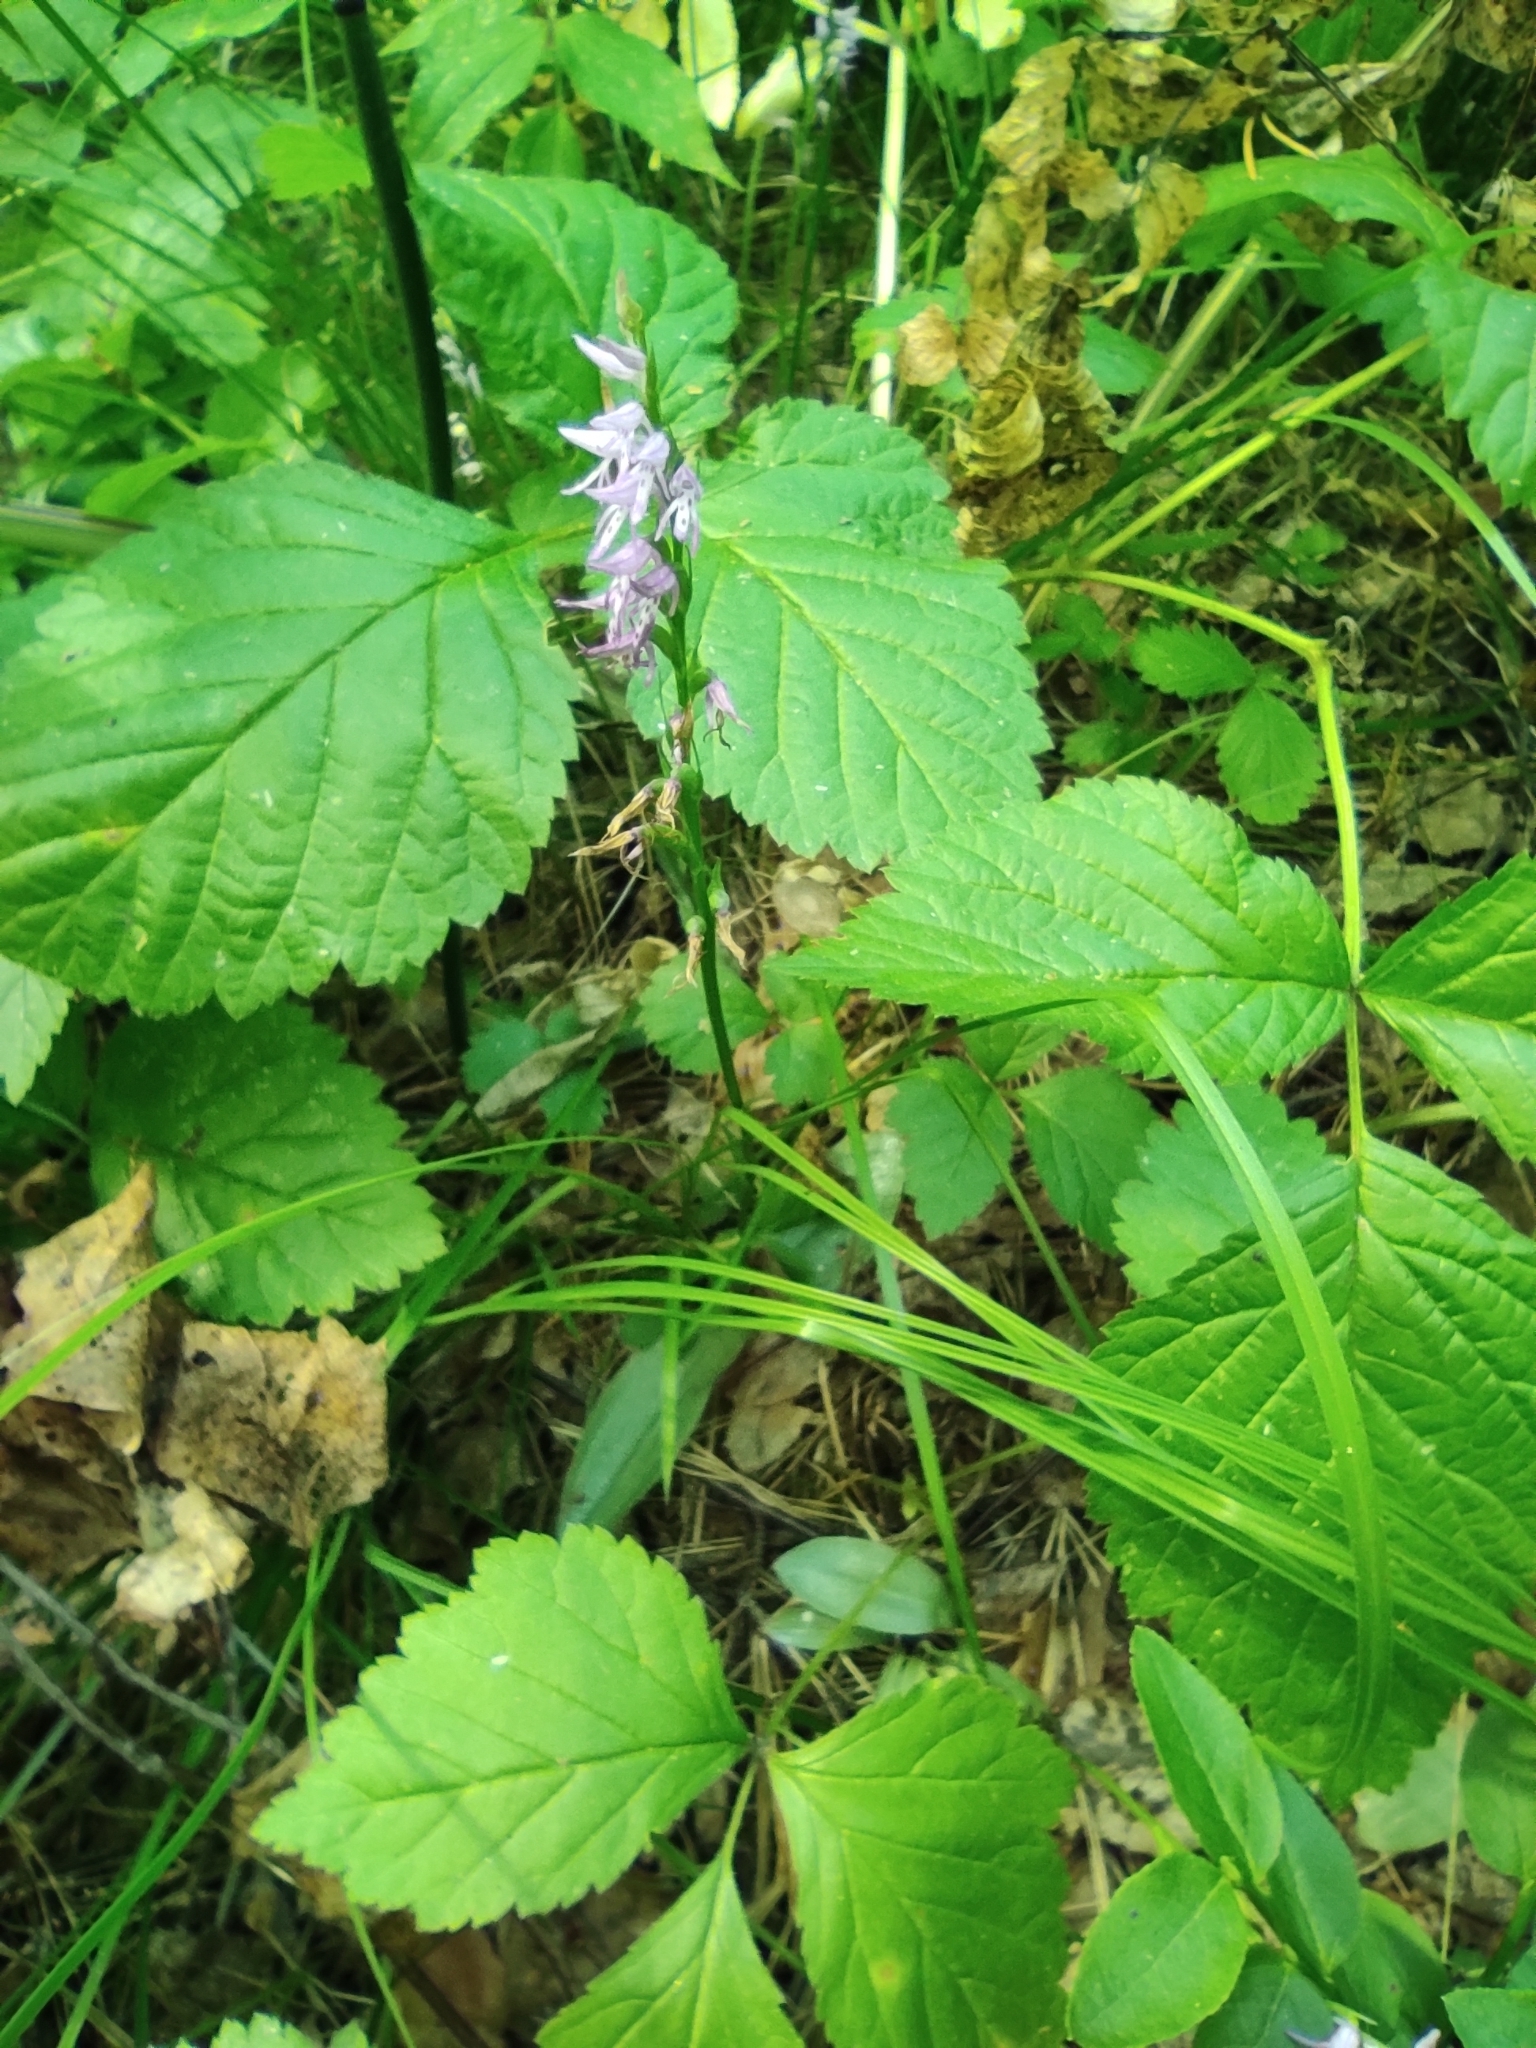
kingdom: Plantae
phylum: Tracheophyta
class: Liliopsida
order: Asparagales
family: Orchidaceae
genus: Hemipilia
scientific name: Hemipilia cucullata
